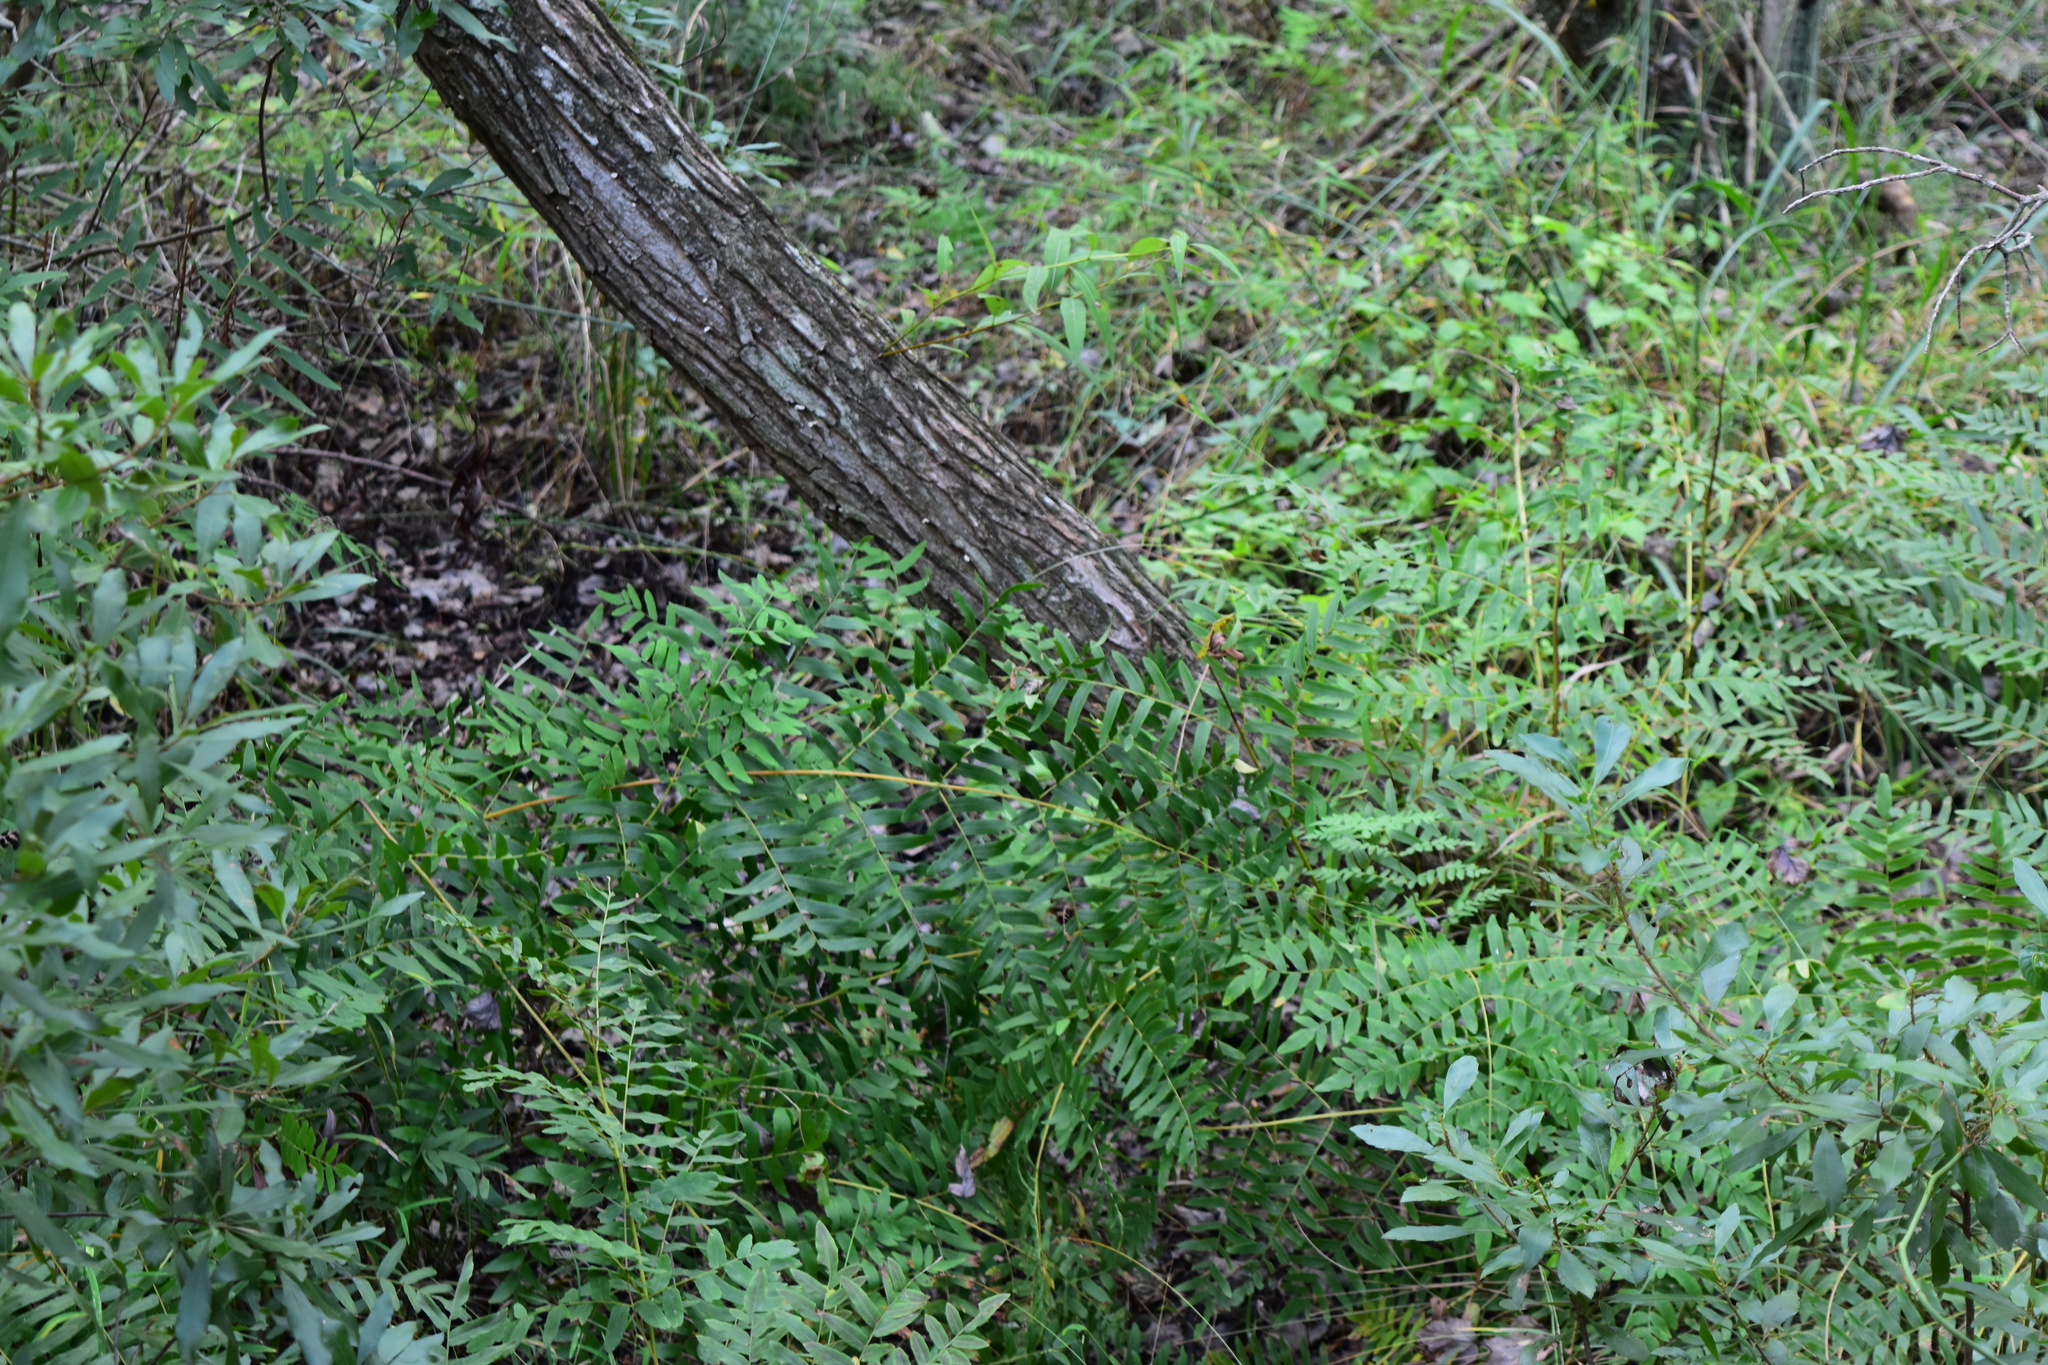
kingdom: Plantae
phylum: Tracheophyta
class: Polypodiopsida
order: Osmundales
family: Osmundaceae
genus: Osmunda
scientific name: Osmunda spectabilis
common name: American royal fern
